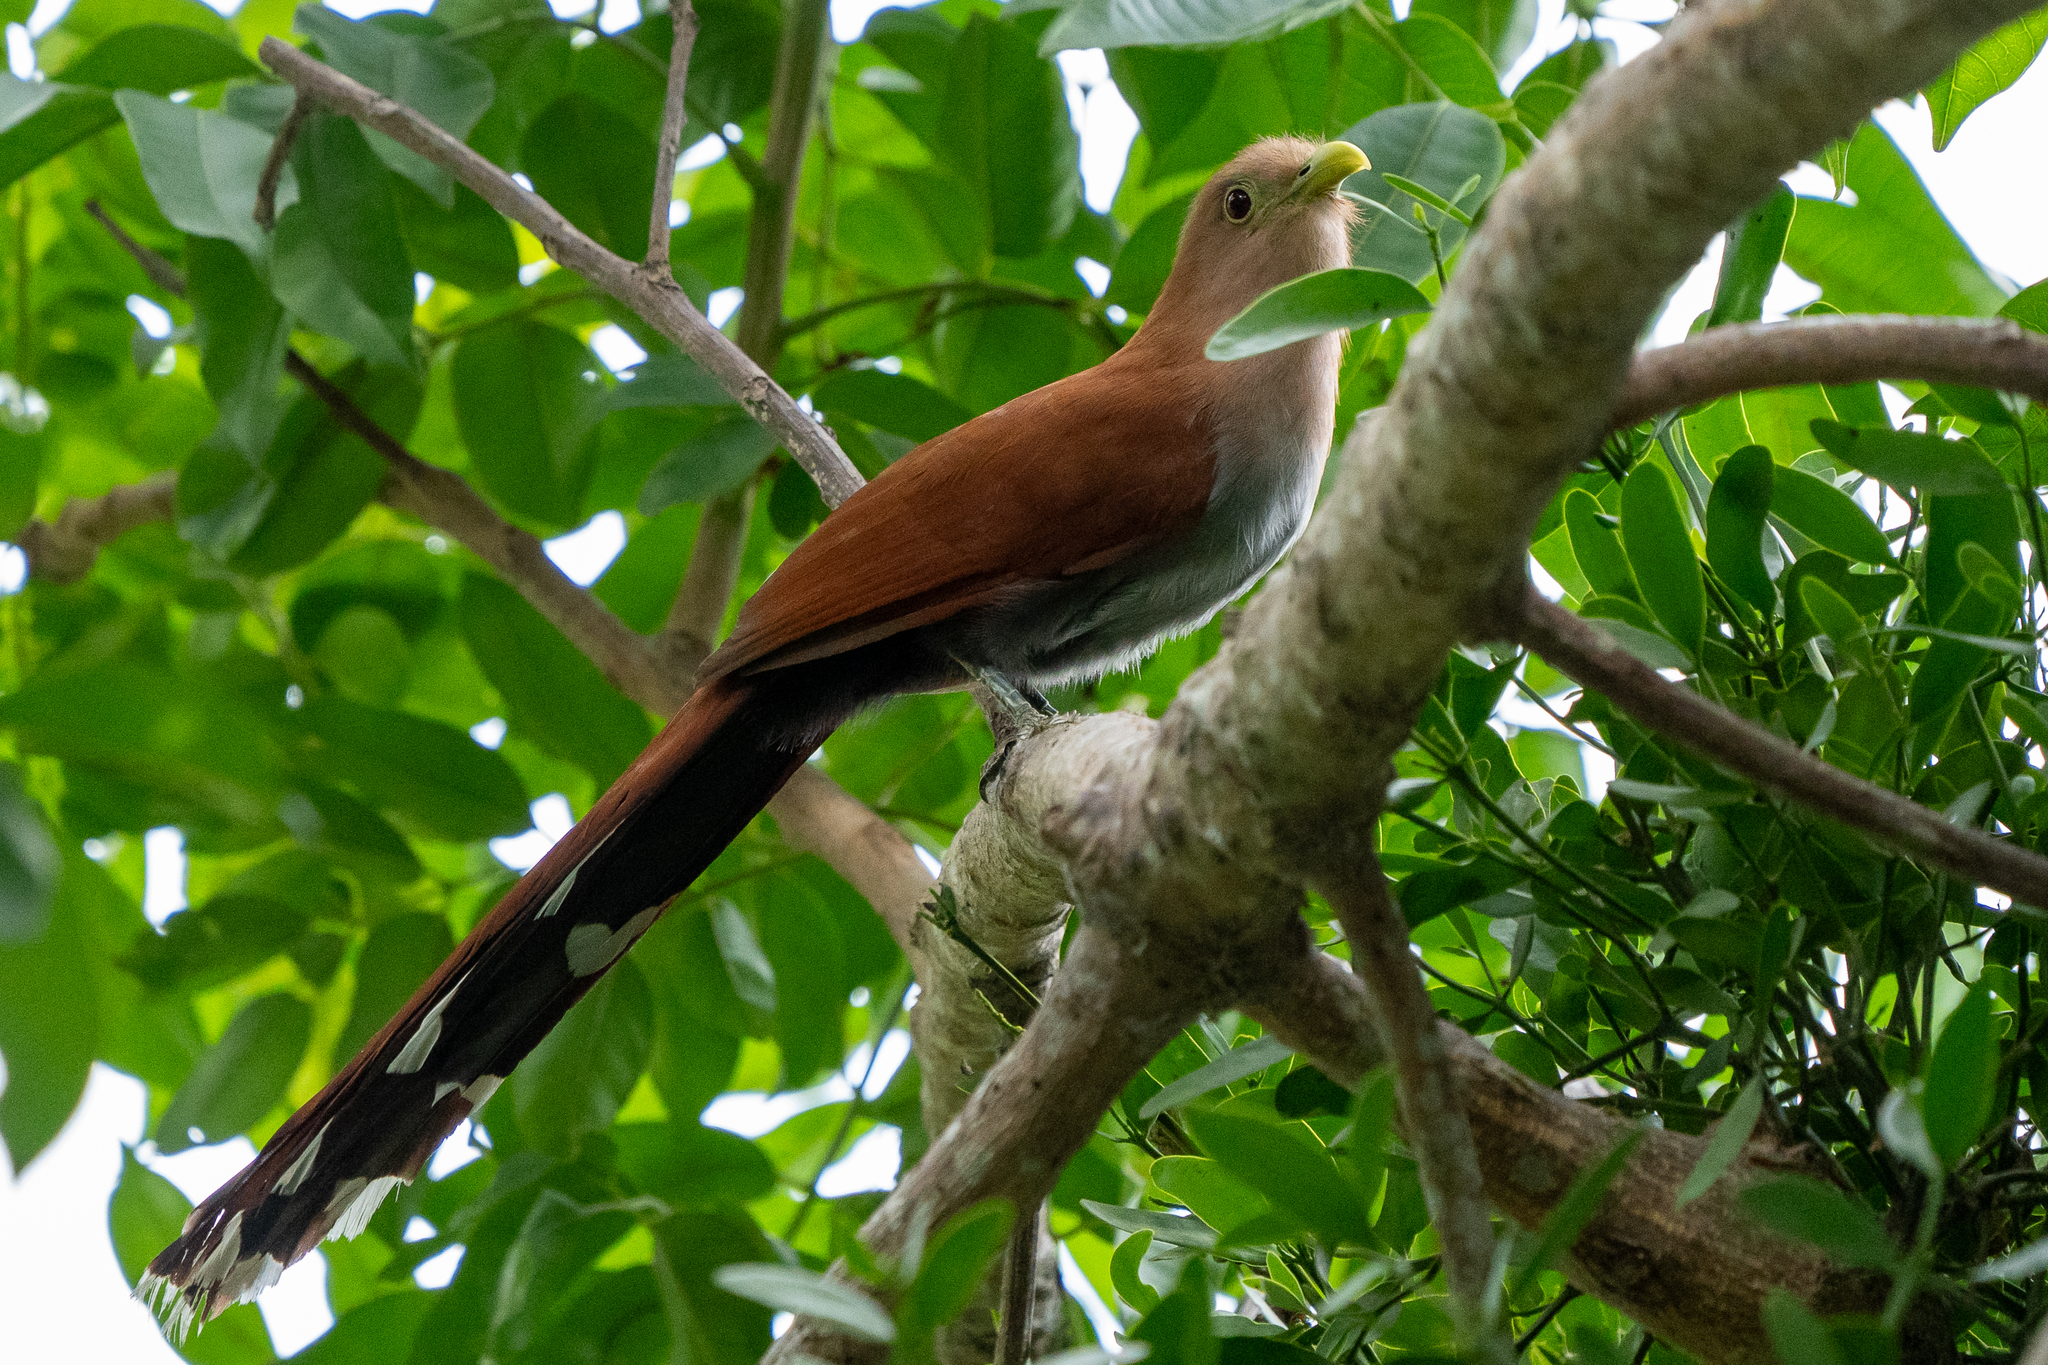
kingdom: Animalia
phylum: Chordata
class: Aves
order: Cuculiformes
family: Cuculidae
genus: Piaya
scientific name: Piaya cayana
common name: Squirrel cuckoo
